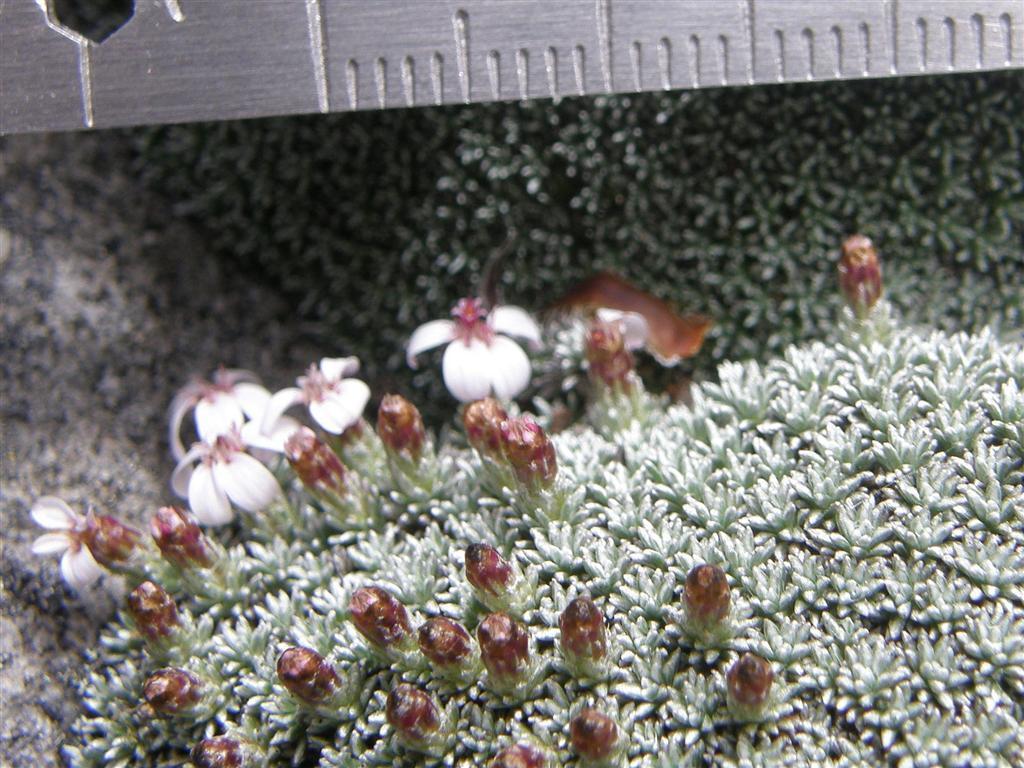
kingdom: Plantae
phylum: Tracheophyta
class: Magnoliopsida
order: Asterales
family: Asteraceae
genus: Muscosomorphe
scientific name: Muscosomorphe aretioides
